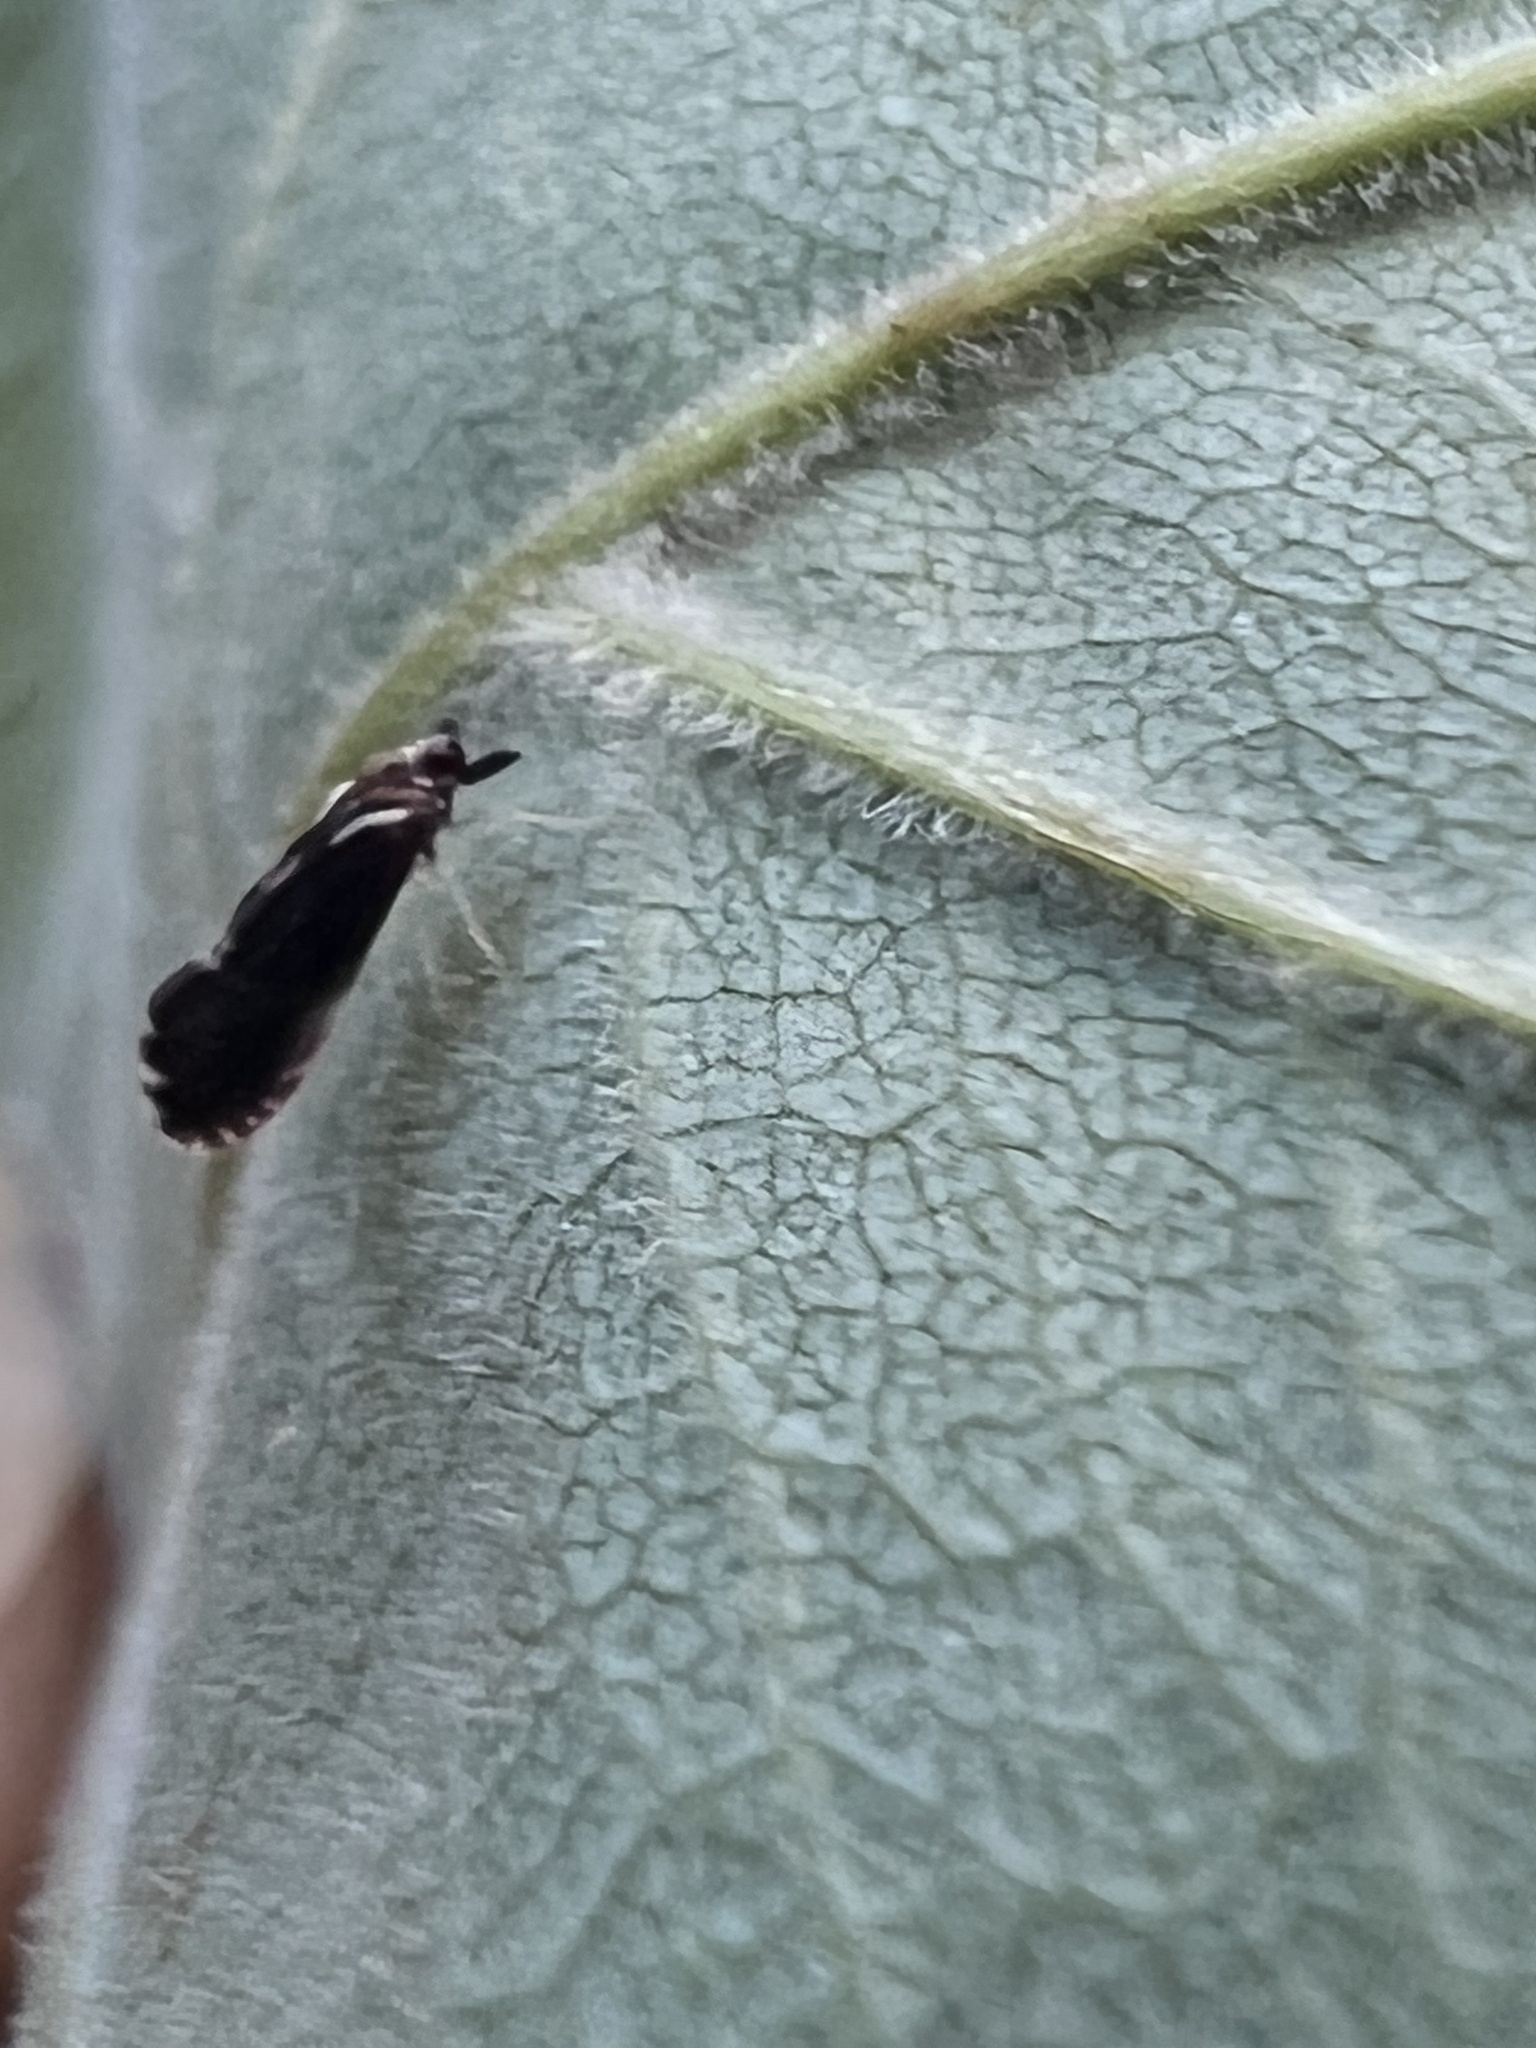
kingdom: Animalia
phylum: Arthropoda
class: Insecta
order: Hemiptera
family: Derbidae
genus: Patara
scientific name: Patara vanduzei
